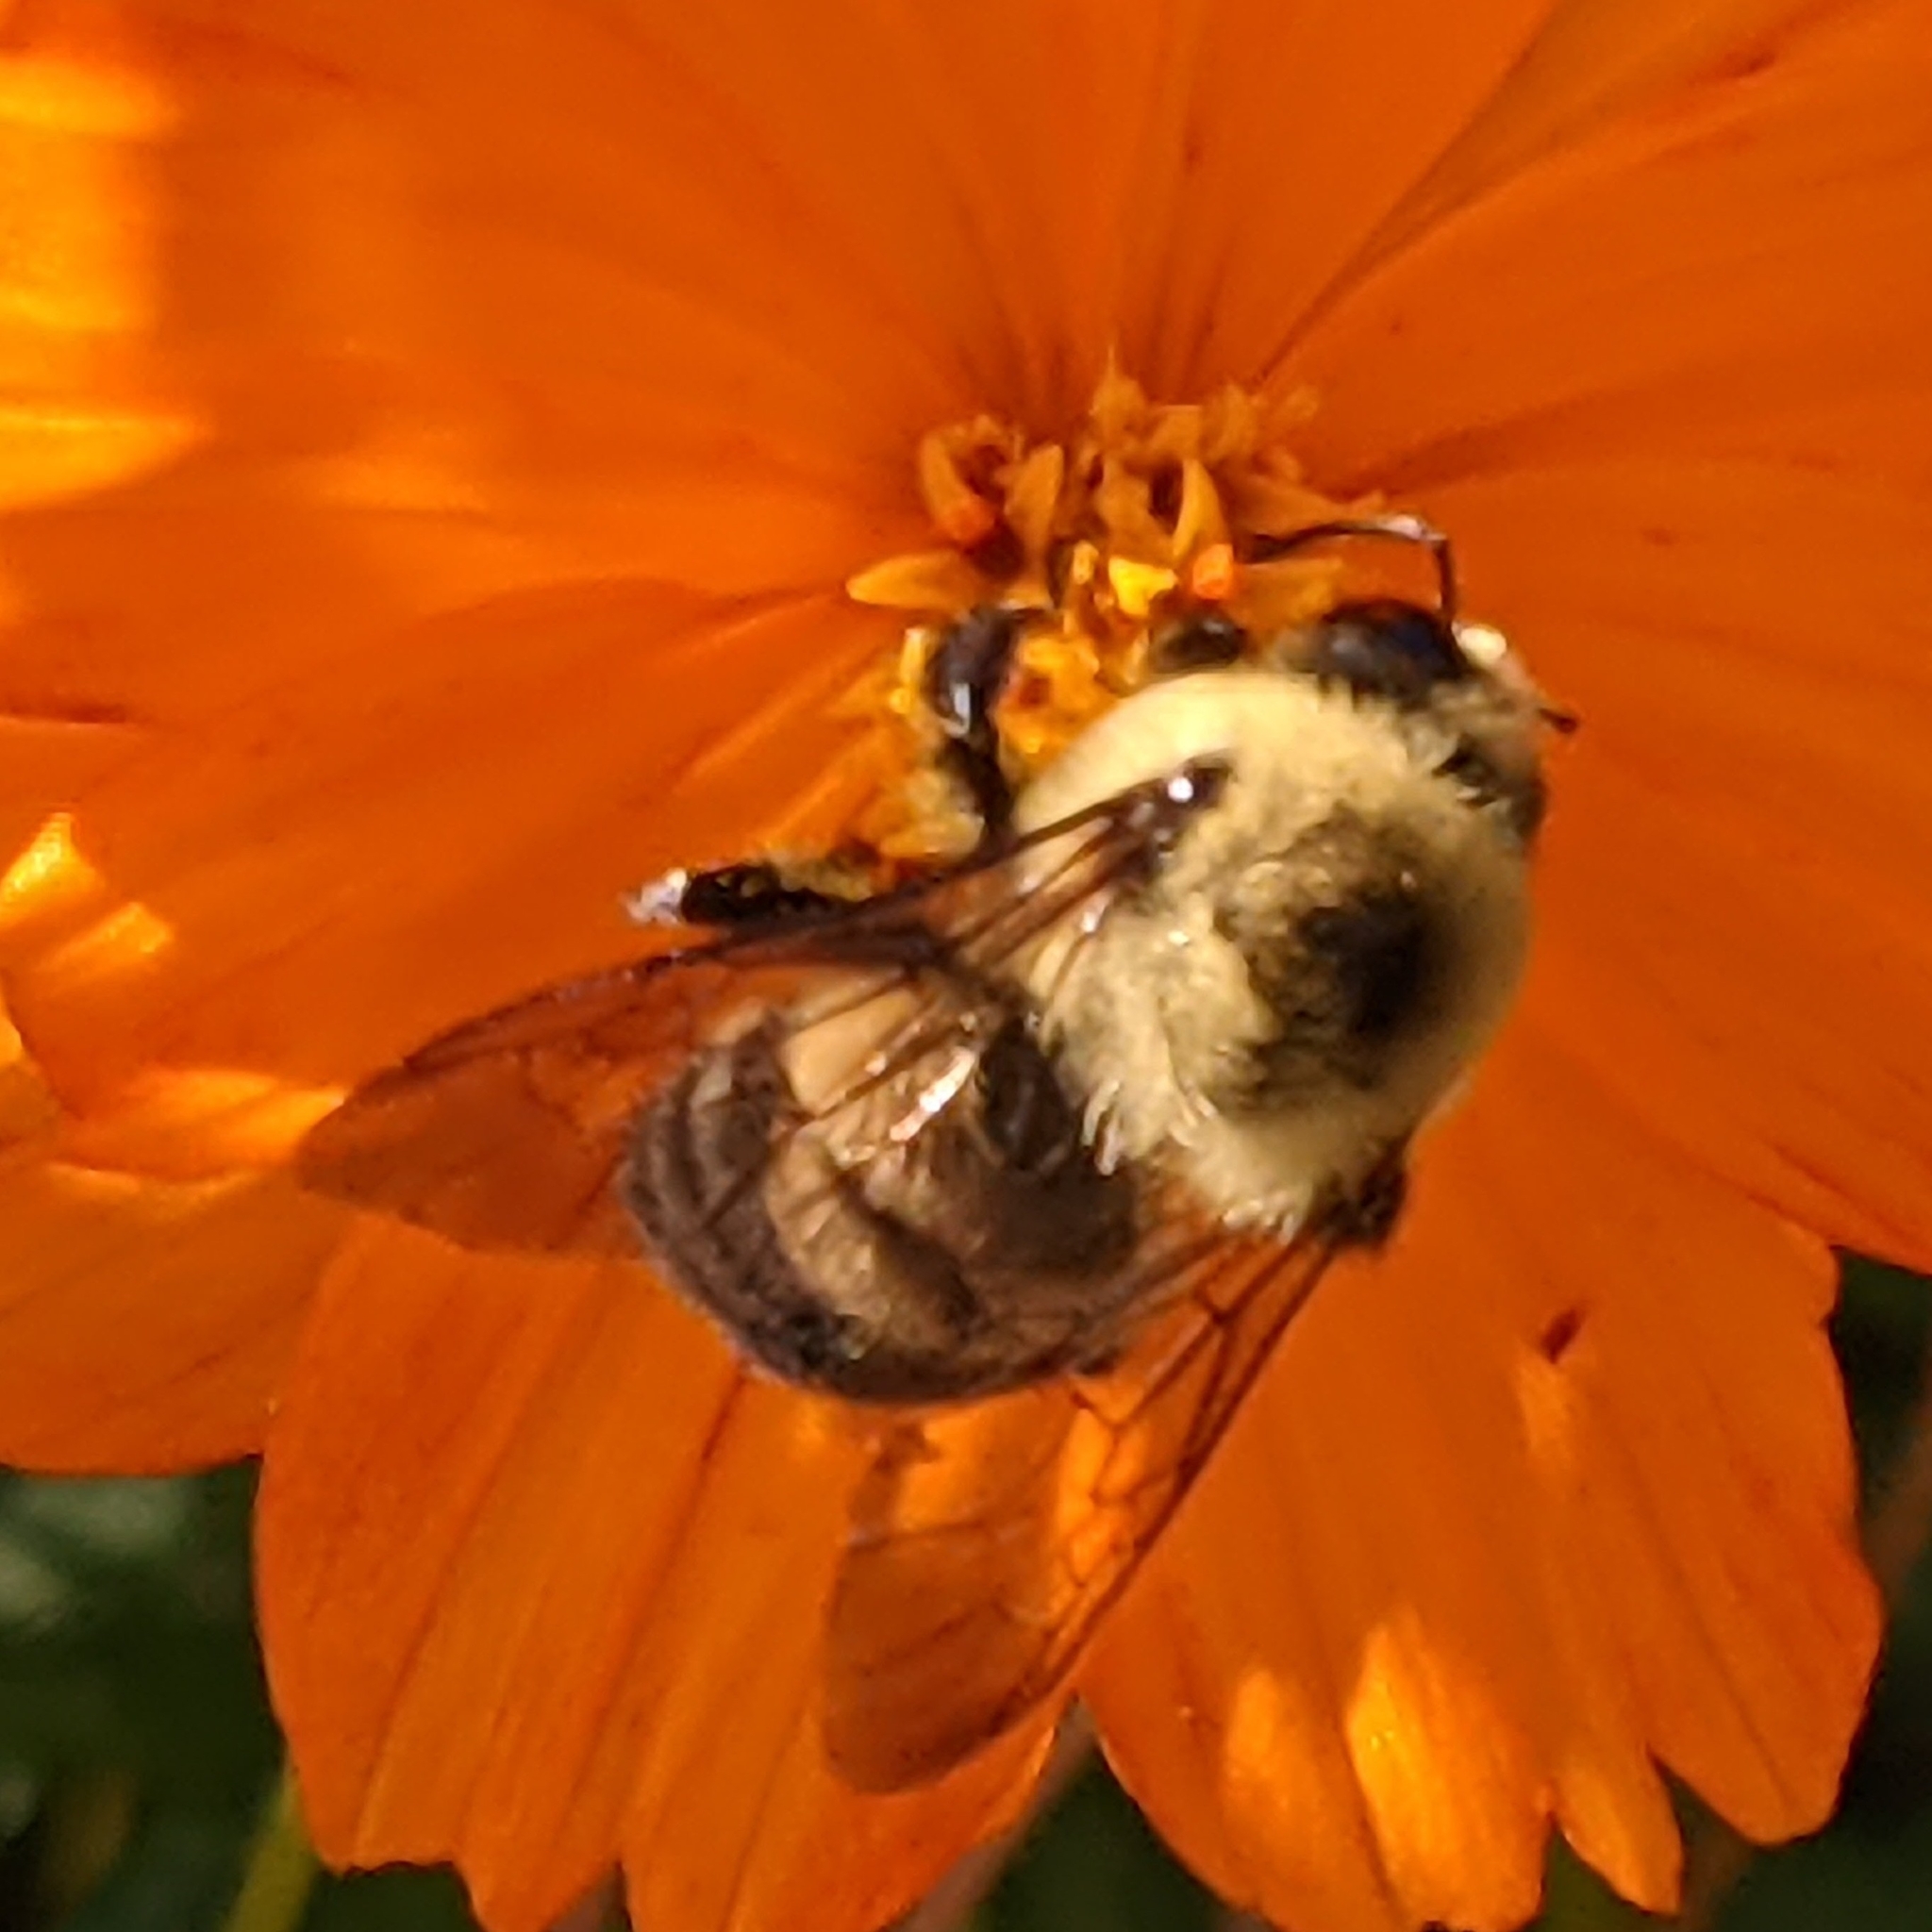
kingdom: Animalia
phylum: Arthropoda
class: Insecta
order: Hymenoptera
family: Apidae
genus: Bombus
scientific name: Bombus griseocollis
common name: Brown-belted bumble bee
